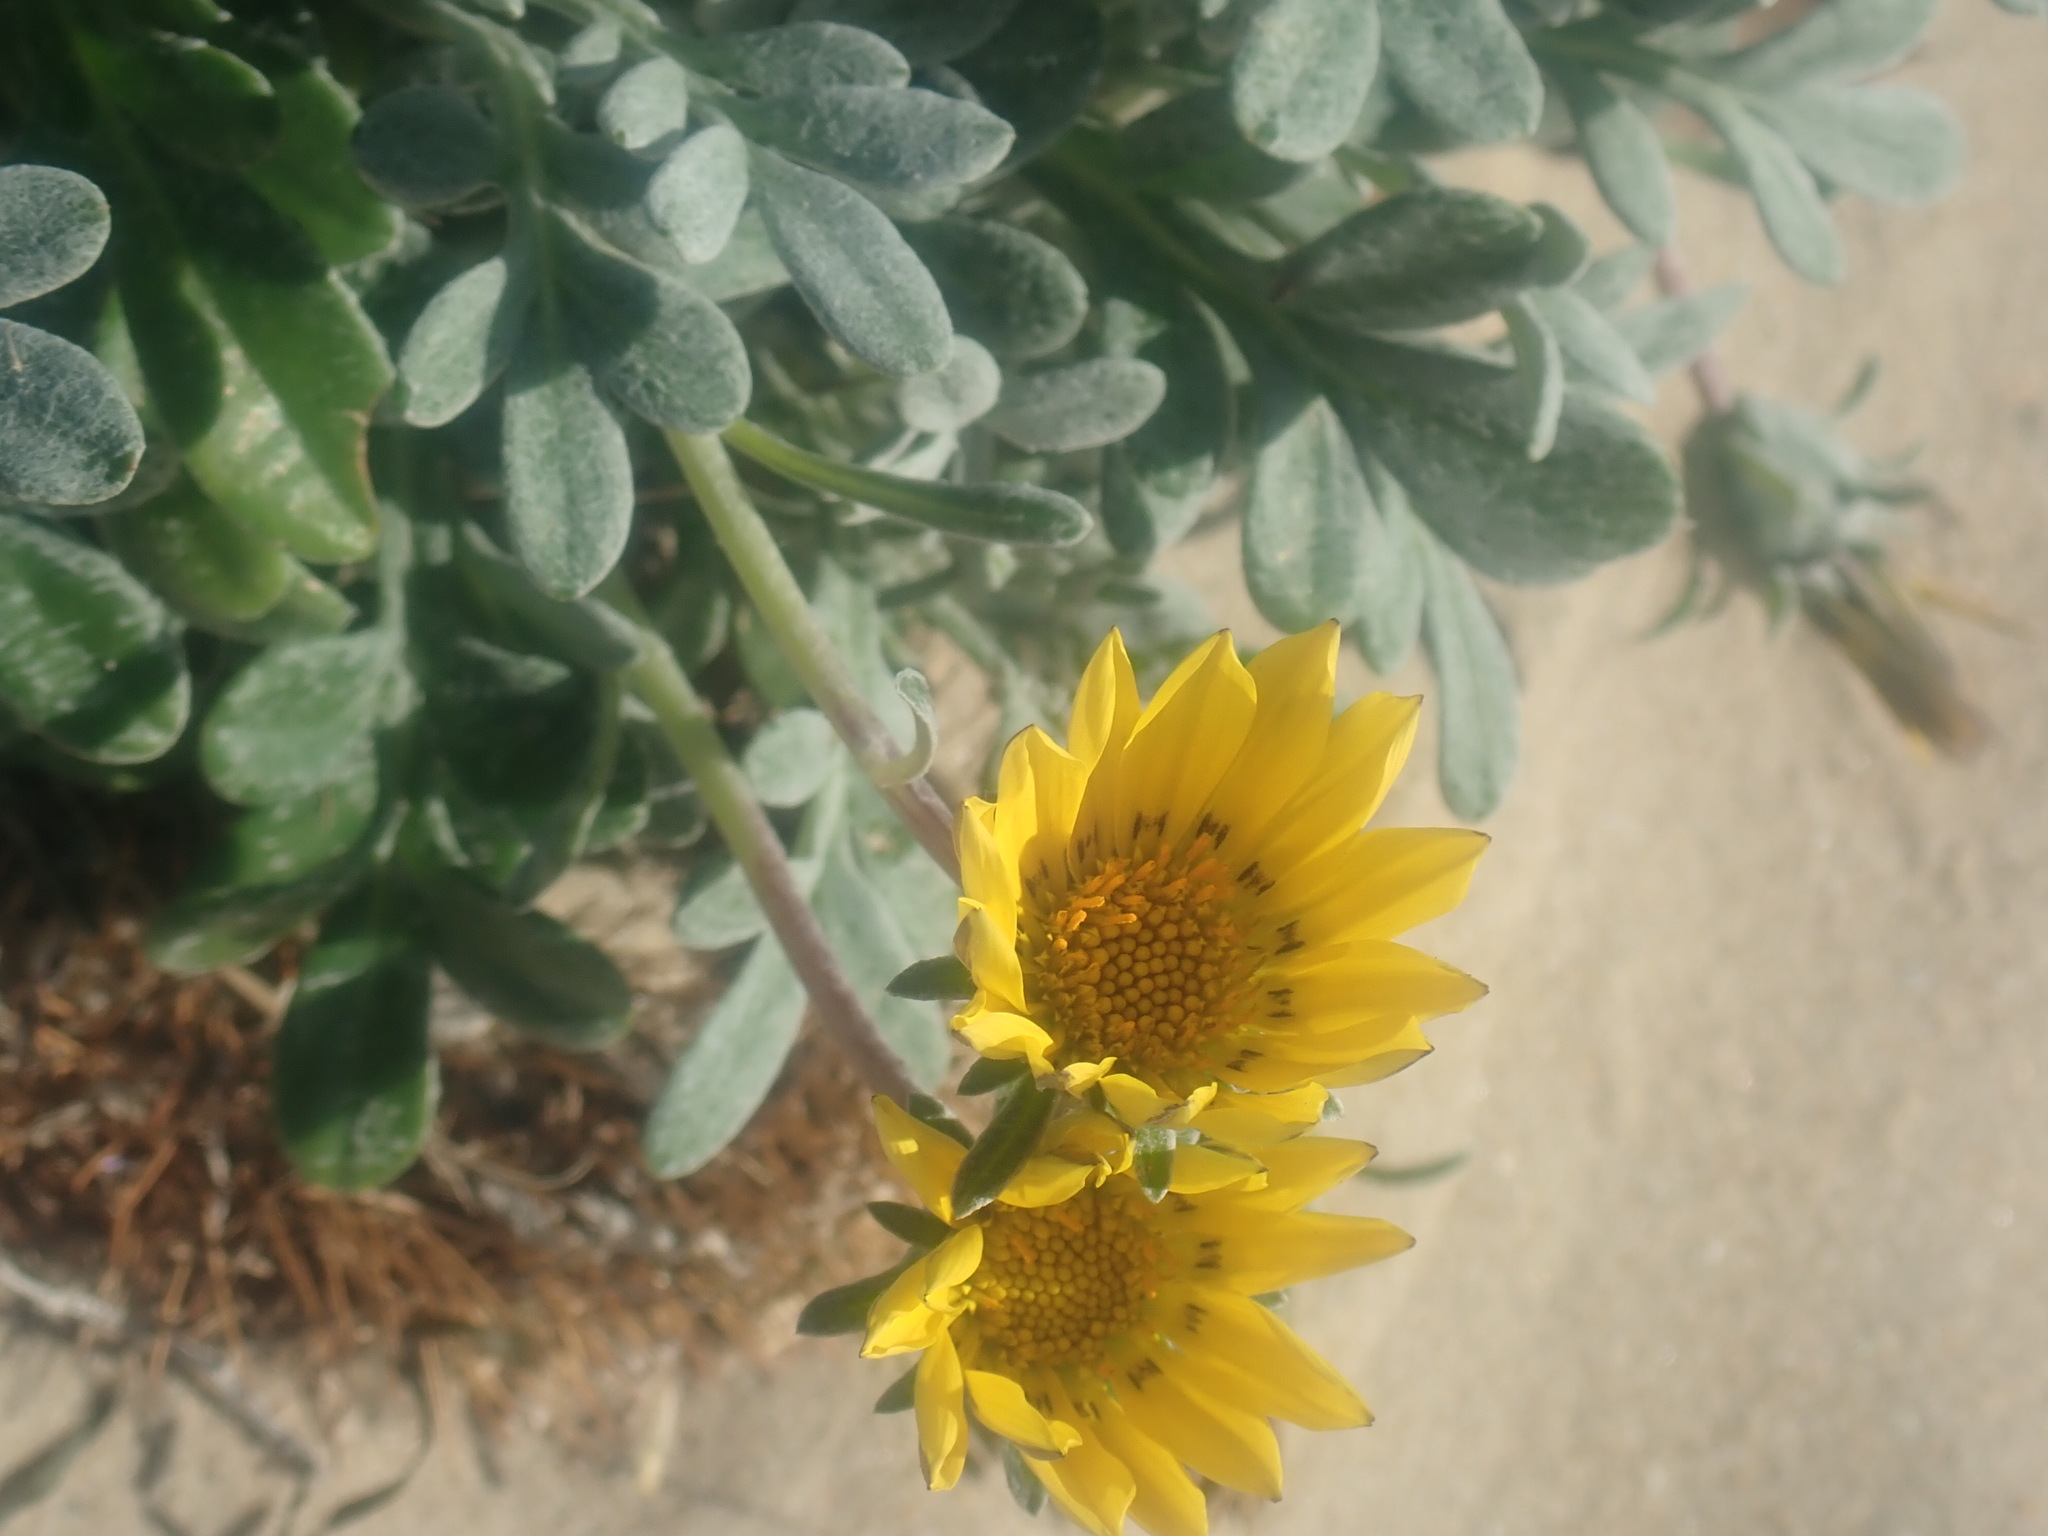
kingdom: Plantae
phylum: Tracheophyta
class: Magnoliopsida
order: Asterales
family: Asteraceae
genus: Gazania
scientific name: Gazania splendens
